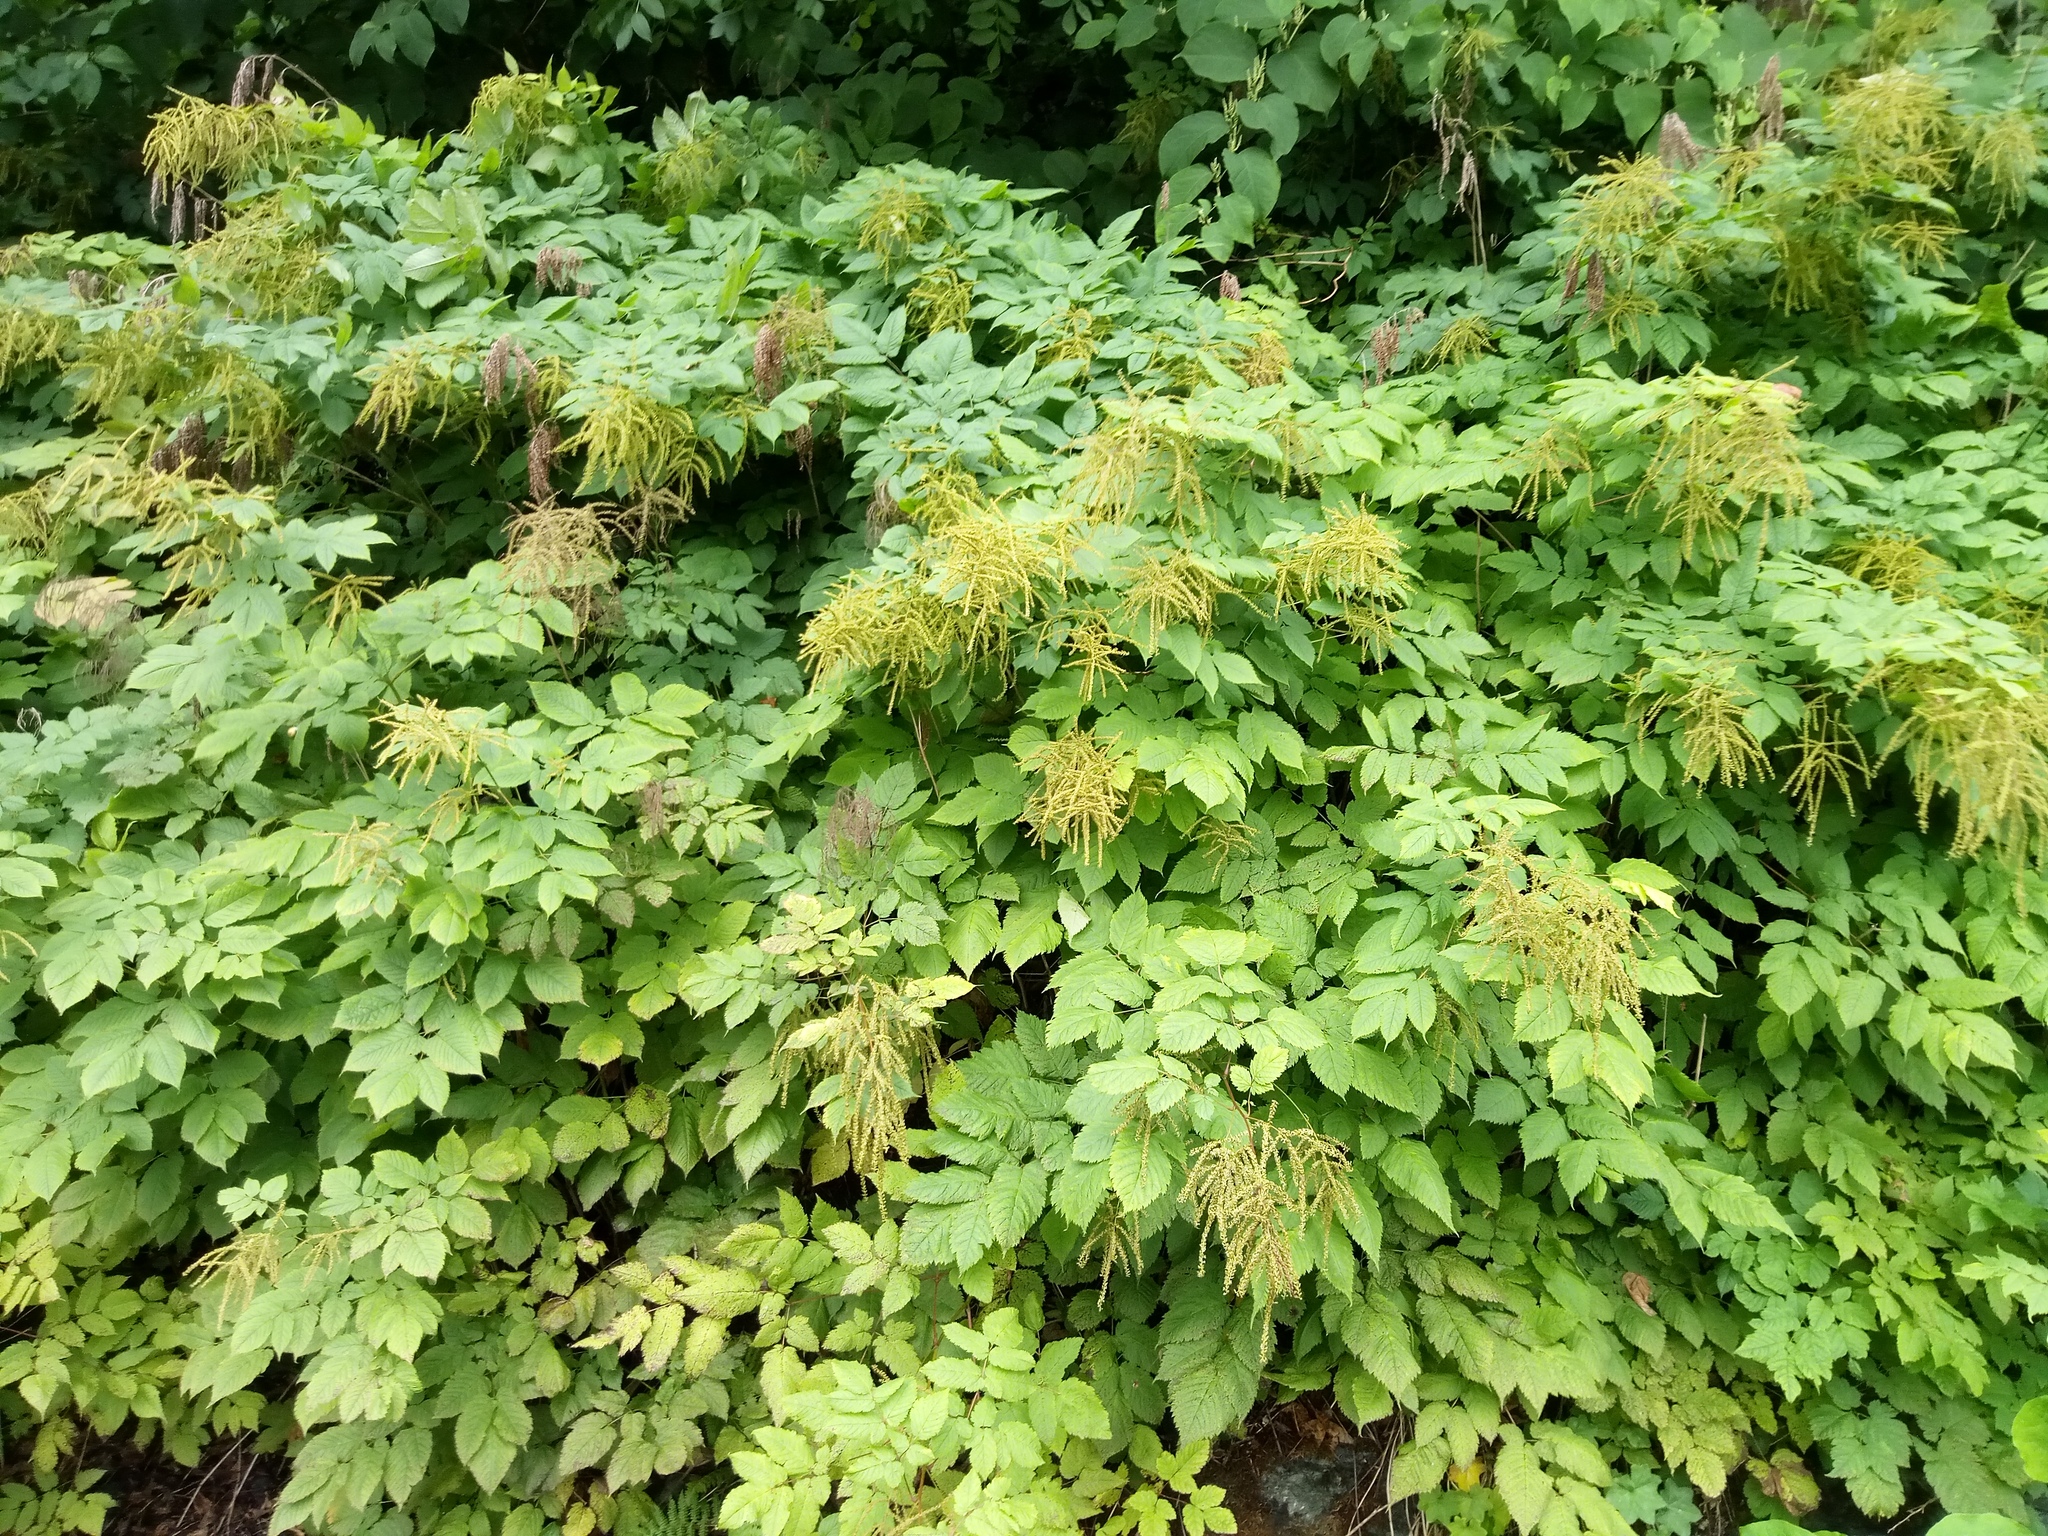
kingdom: Plantae
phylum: Tracheophyta
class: Magnoliopsida
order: Rosales
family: Rosaceae
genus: Aruncus
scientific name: Aruncus dioicus
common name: Buck's-beard
